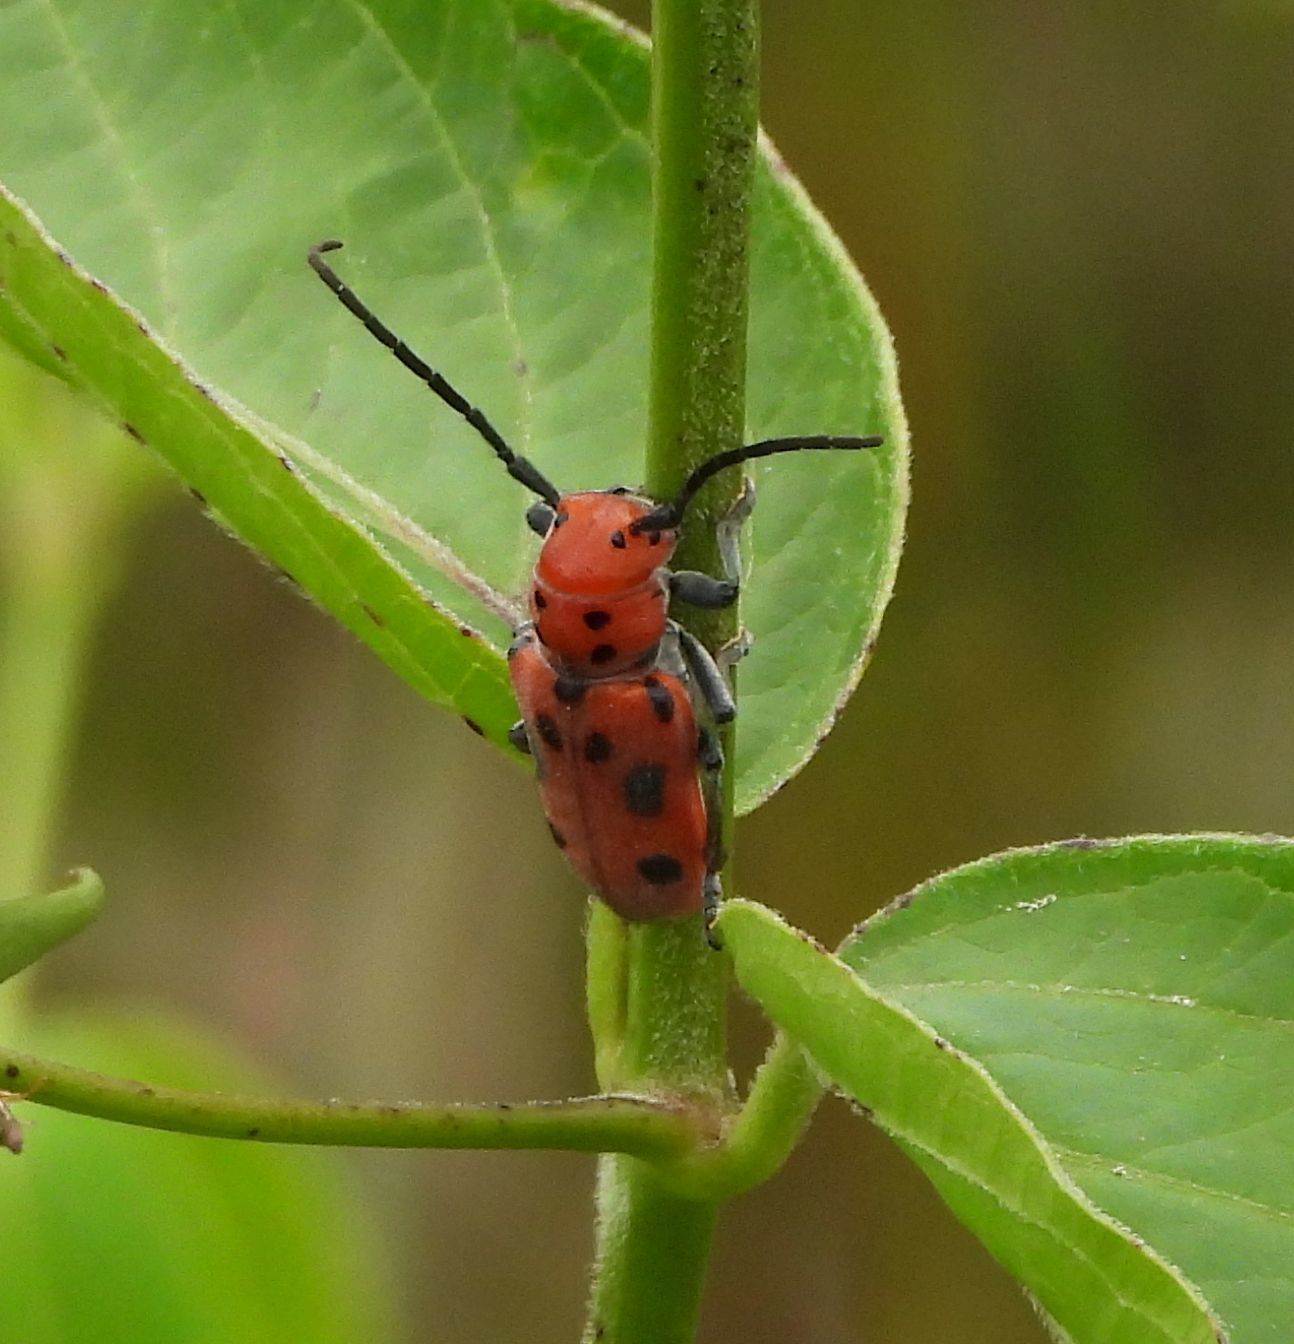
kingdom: Animalia
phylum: Arthropoda
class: Insecta
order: Coleoptera
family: Cerambycidae
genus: Tetraopes
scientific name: Tetraopes tetrophthalmus
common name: Red milkweed beetle
